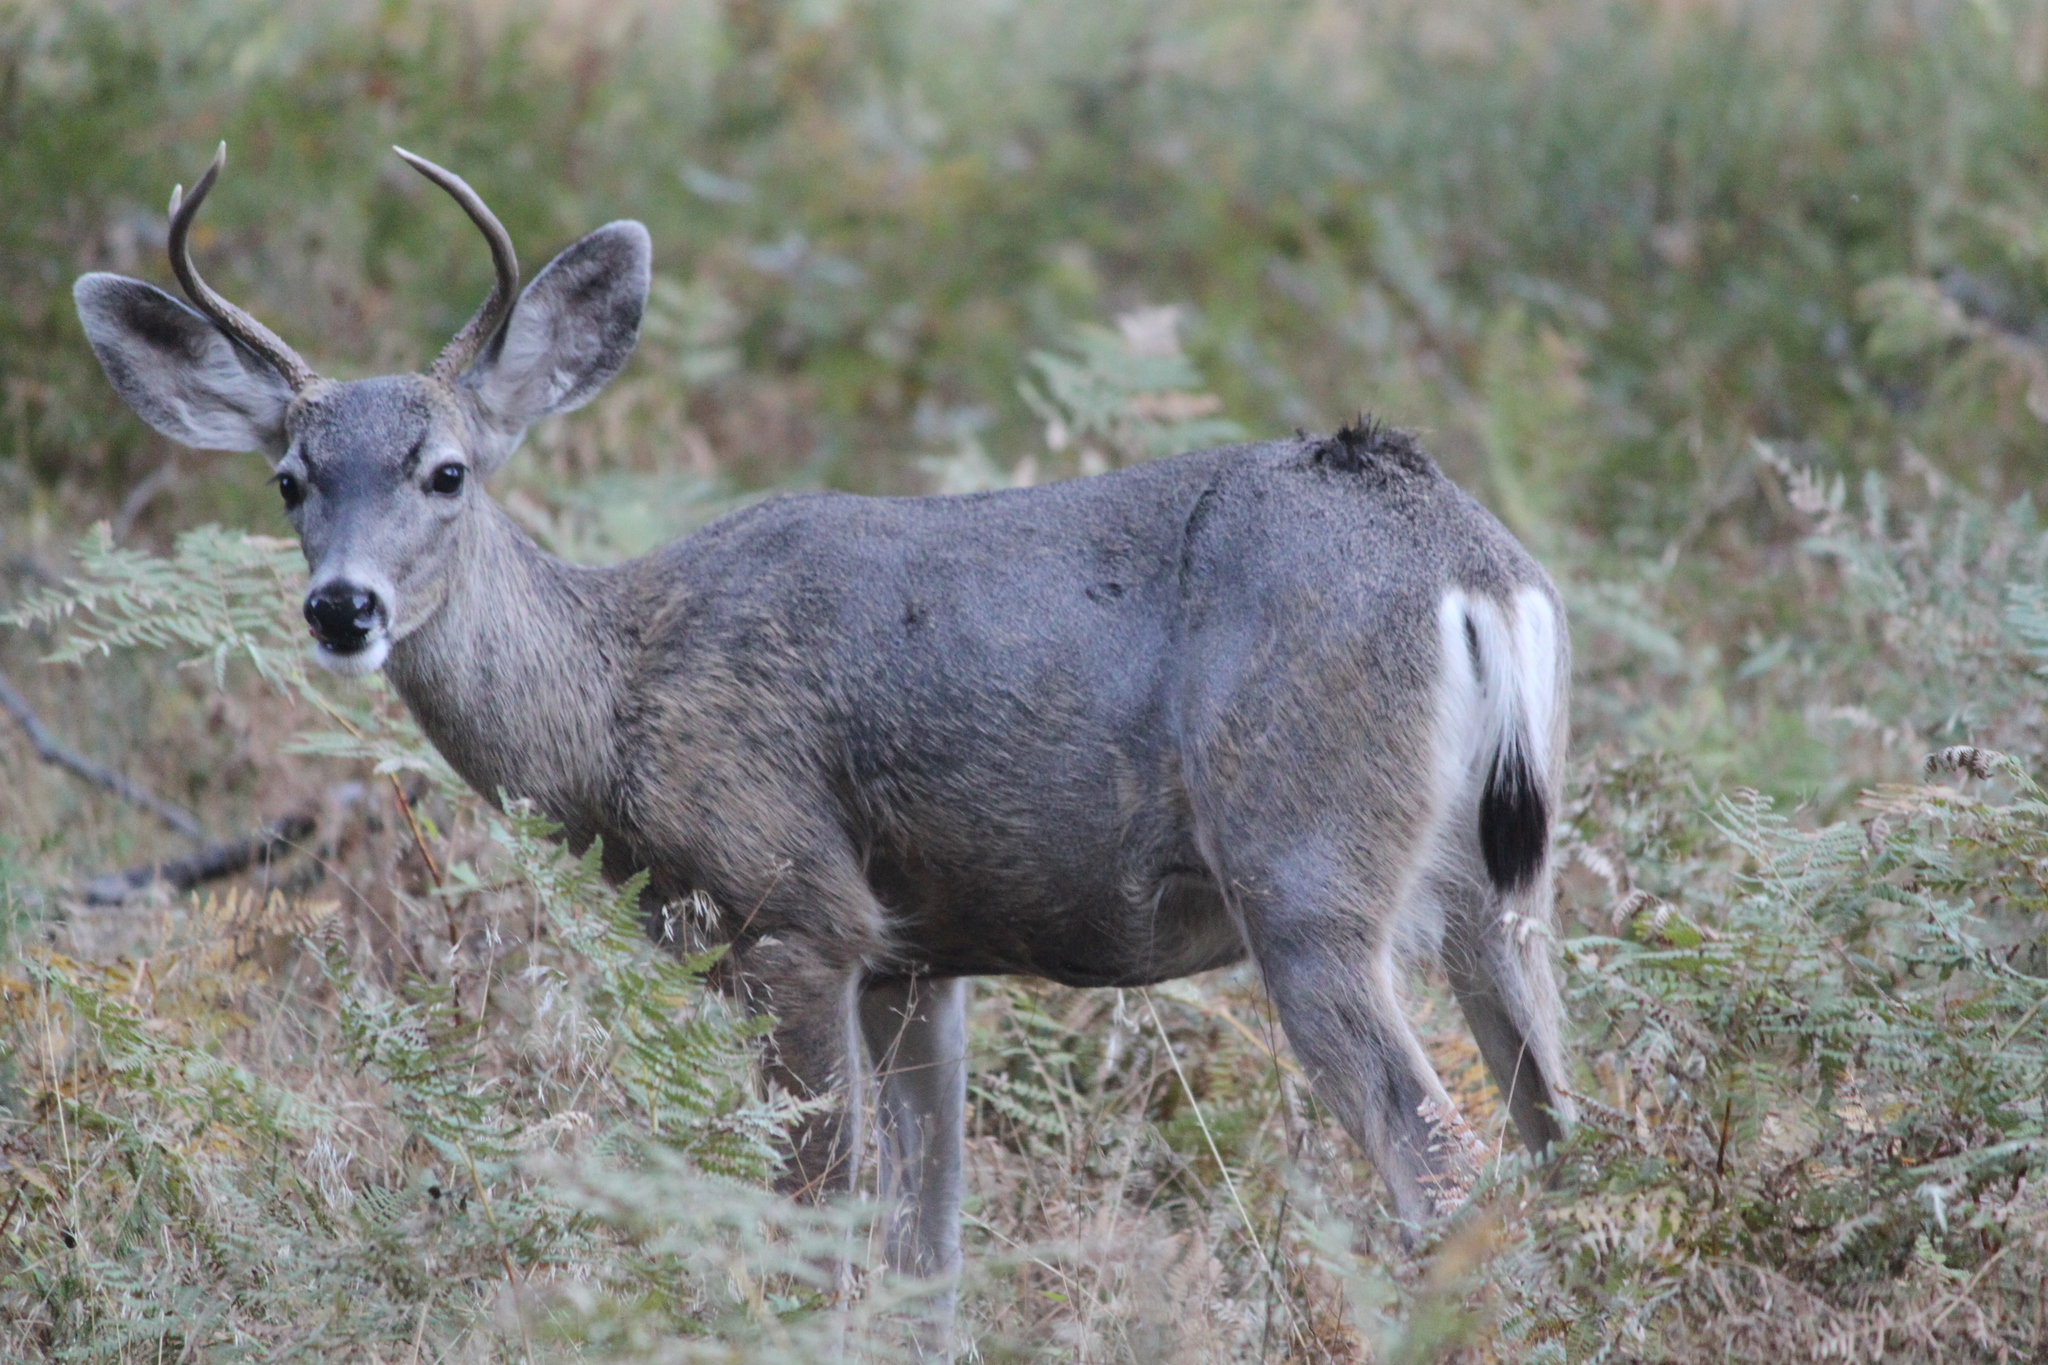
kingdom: Animalia
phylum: Chordata
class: Mammalia
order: Artiodactyla
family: Cervidae
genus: Odocoileus
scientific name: Odocoileus hemionus
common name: Mule deer
